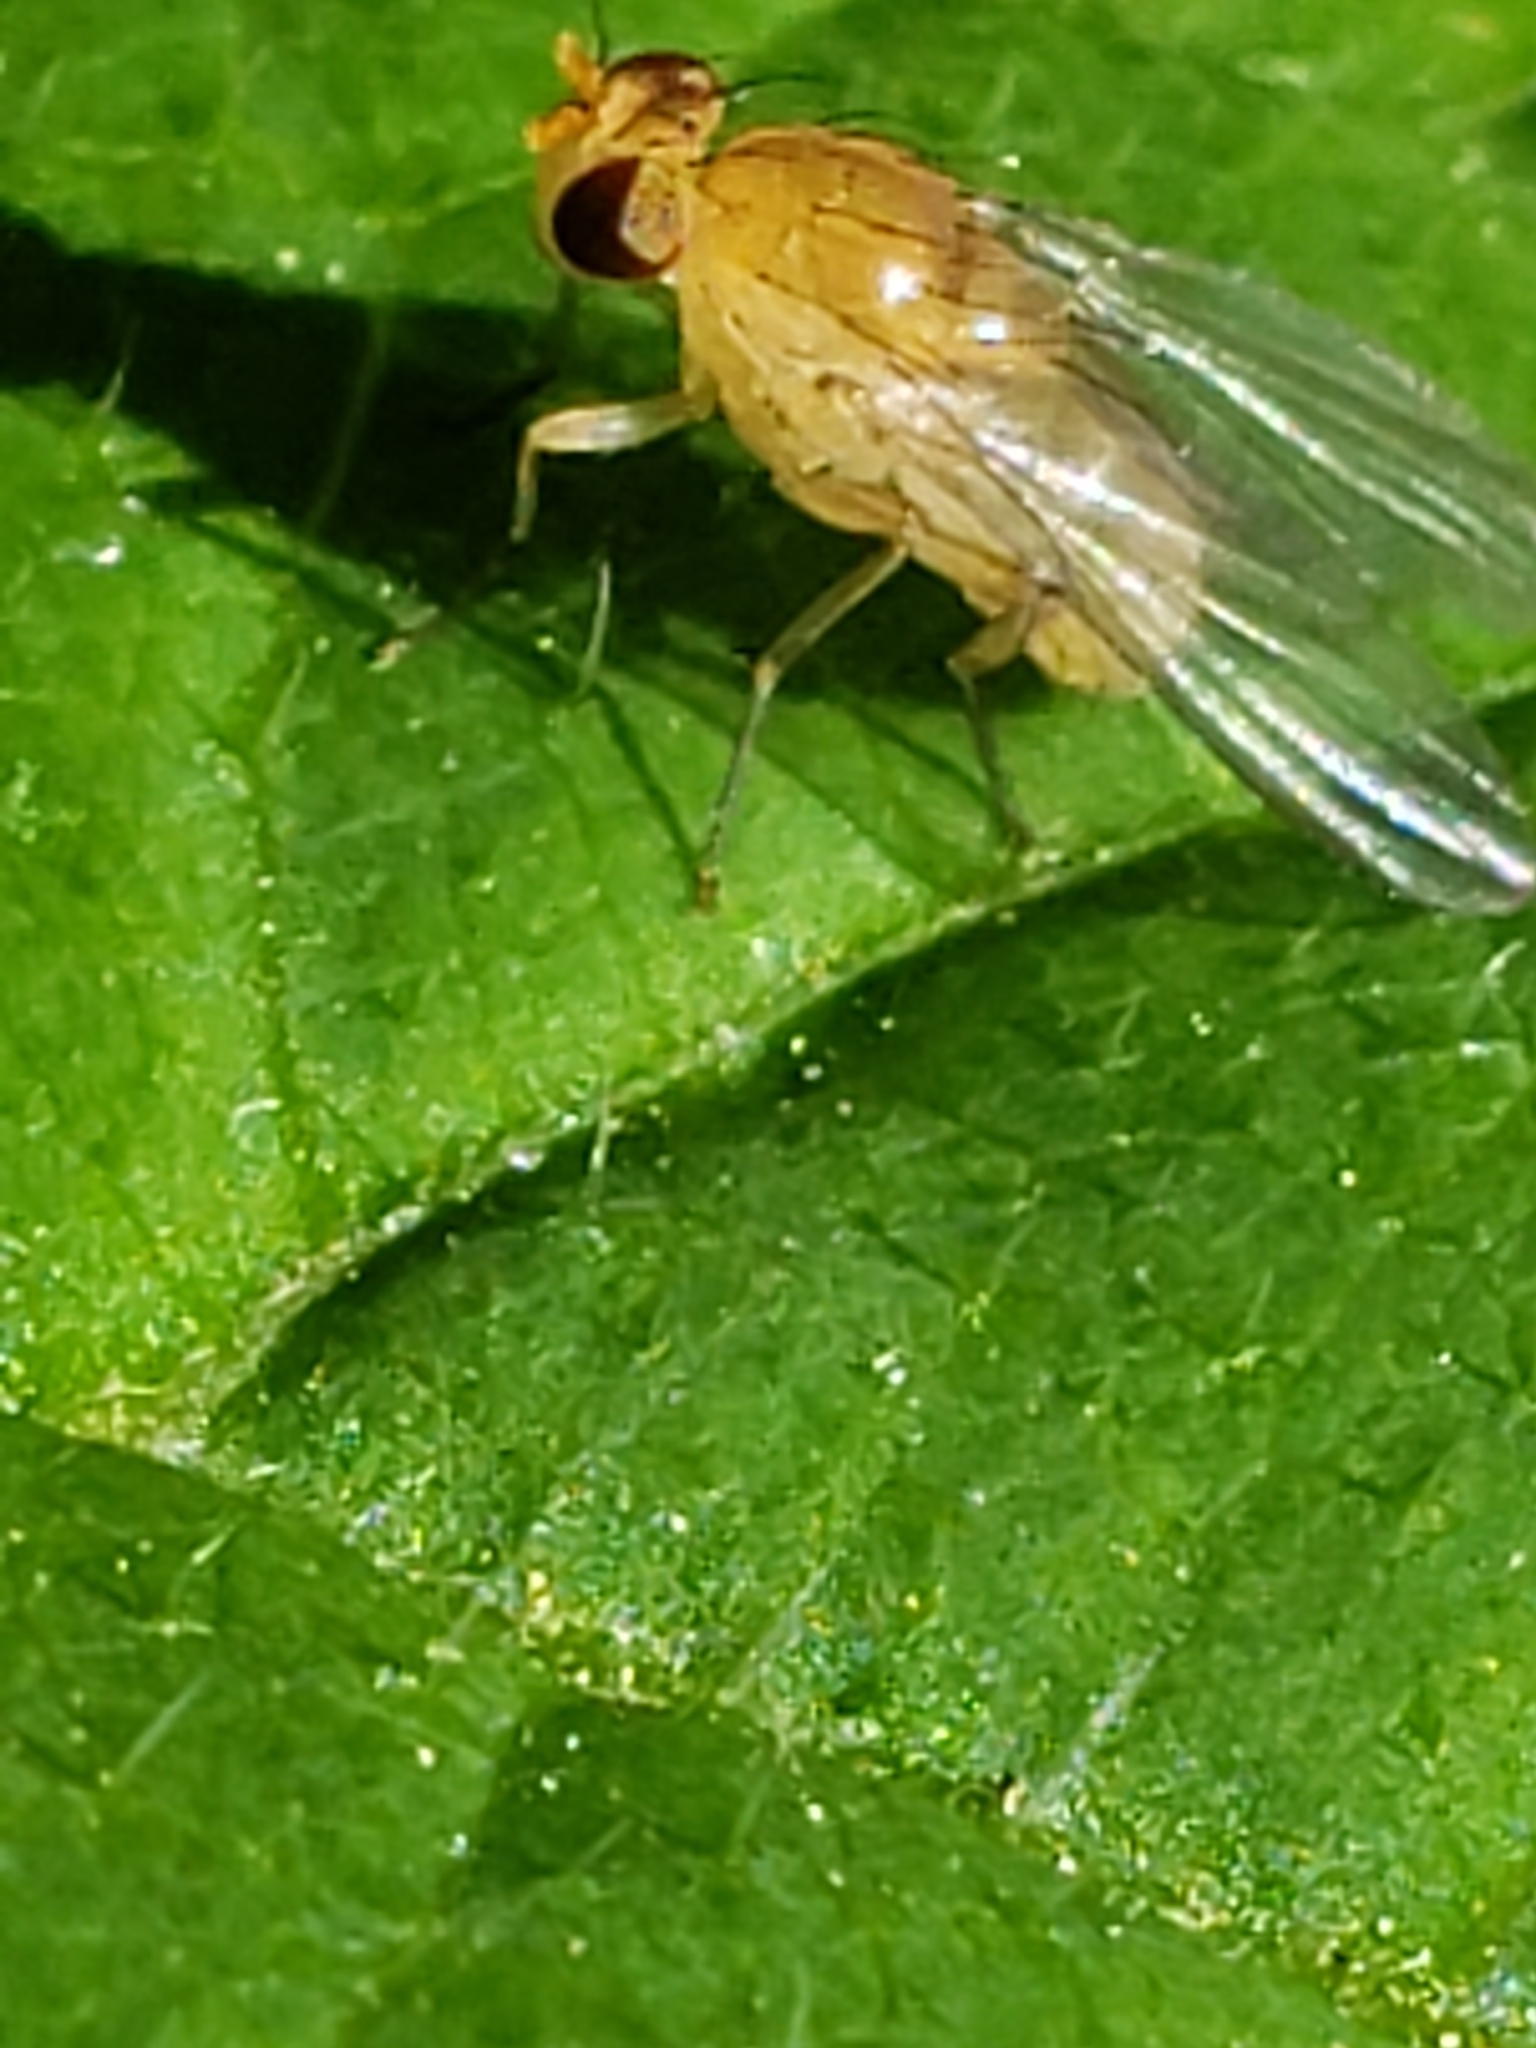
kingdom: Animalia
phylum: Arthropoda
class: Insecta
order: Diptera
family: Lauxaniidae
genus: Neogriphoneura
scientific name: Neogriphoneura sordida
